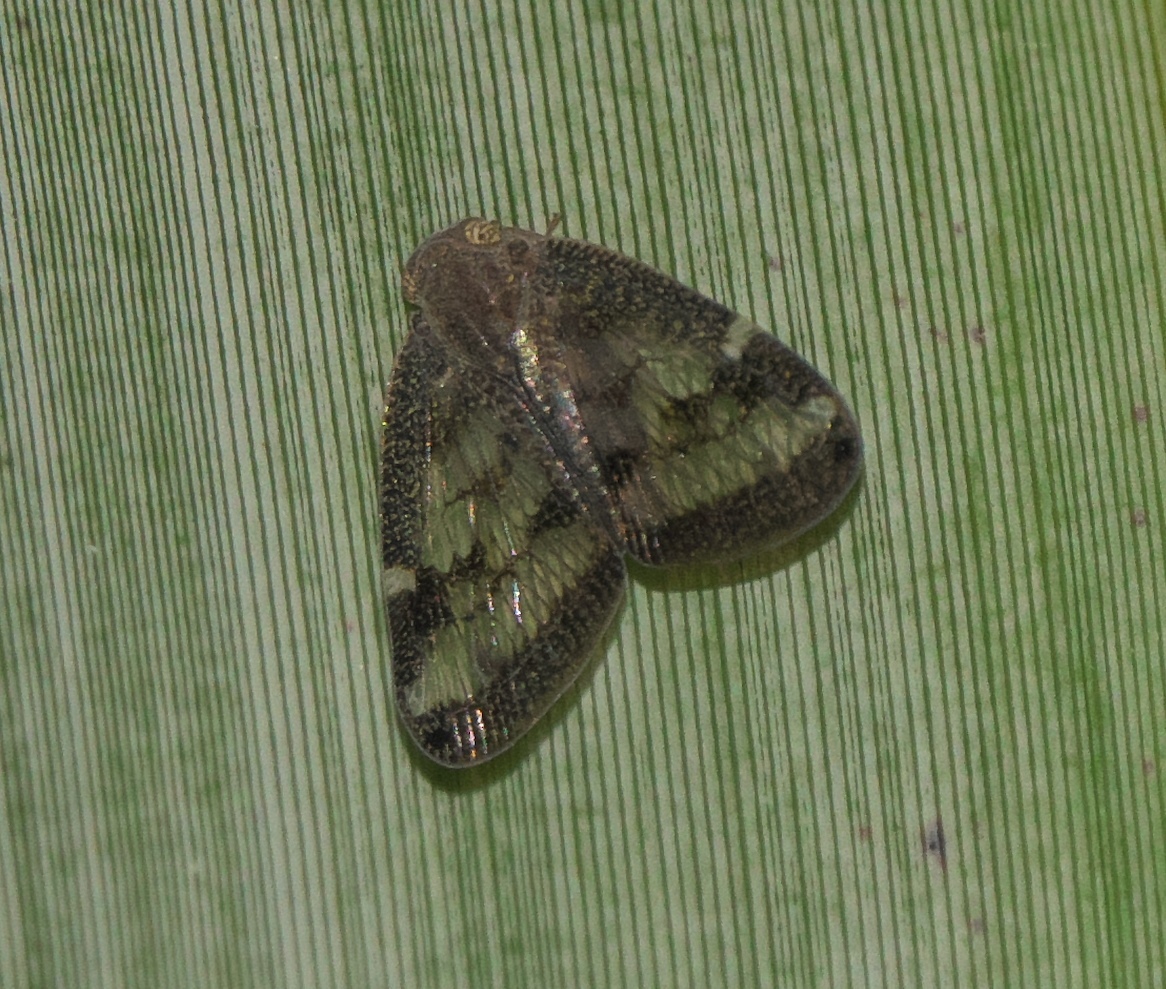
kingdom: Animalia
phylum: Arthropoda
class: Insecta
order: Hemiptera
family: Ricaniidae
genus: Scolypopa
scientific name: Scolypopa australis
